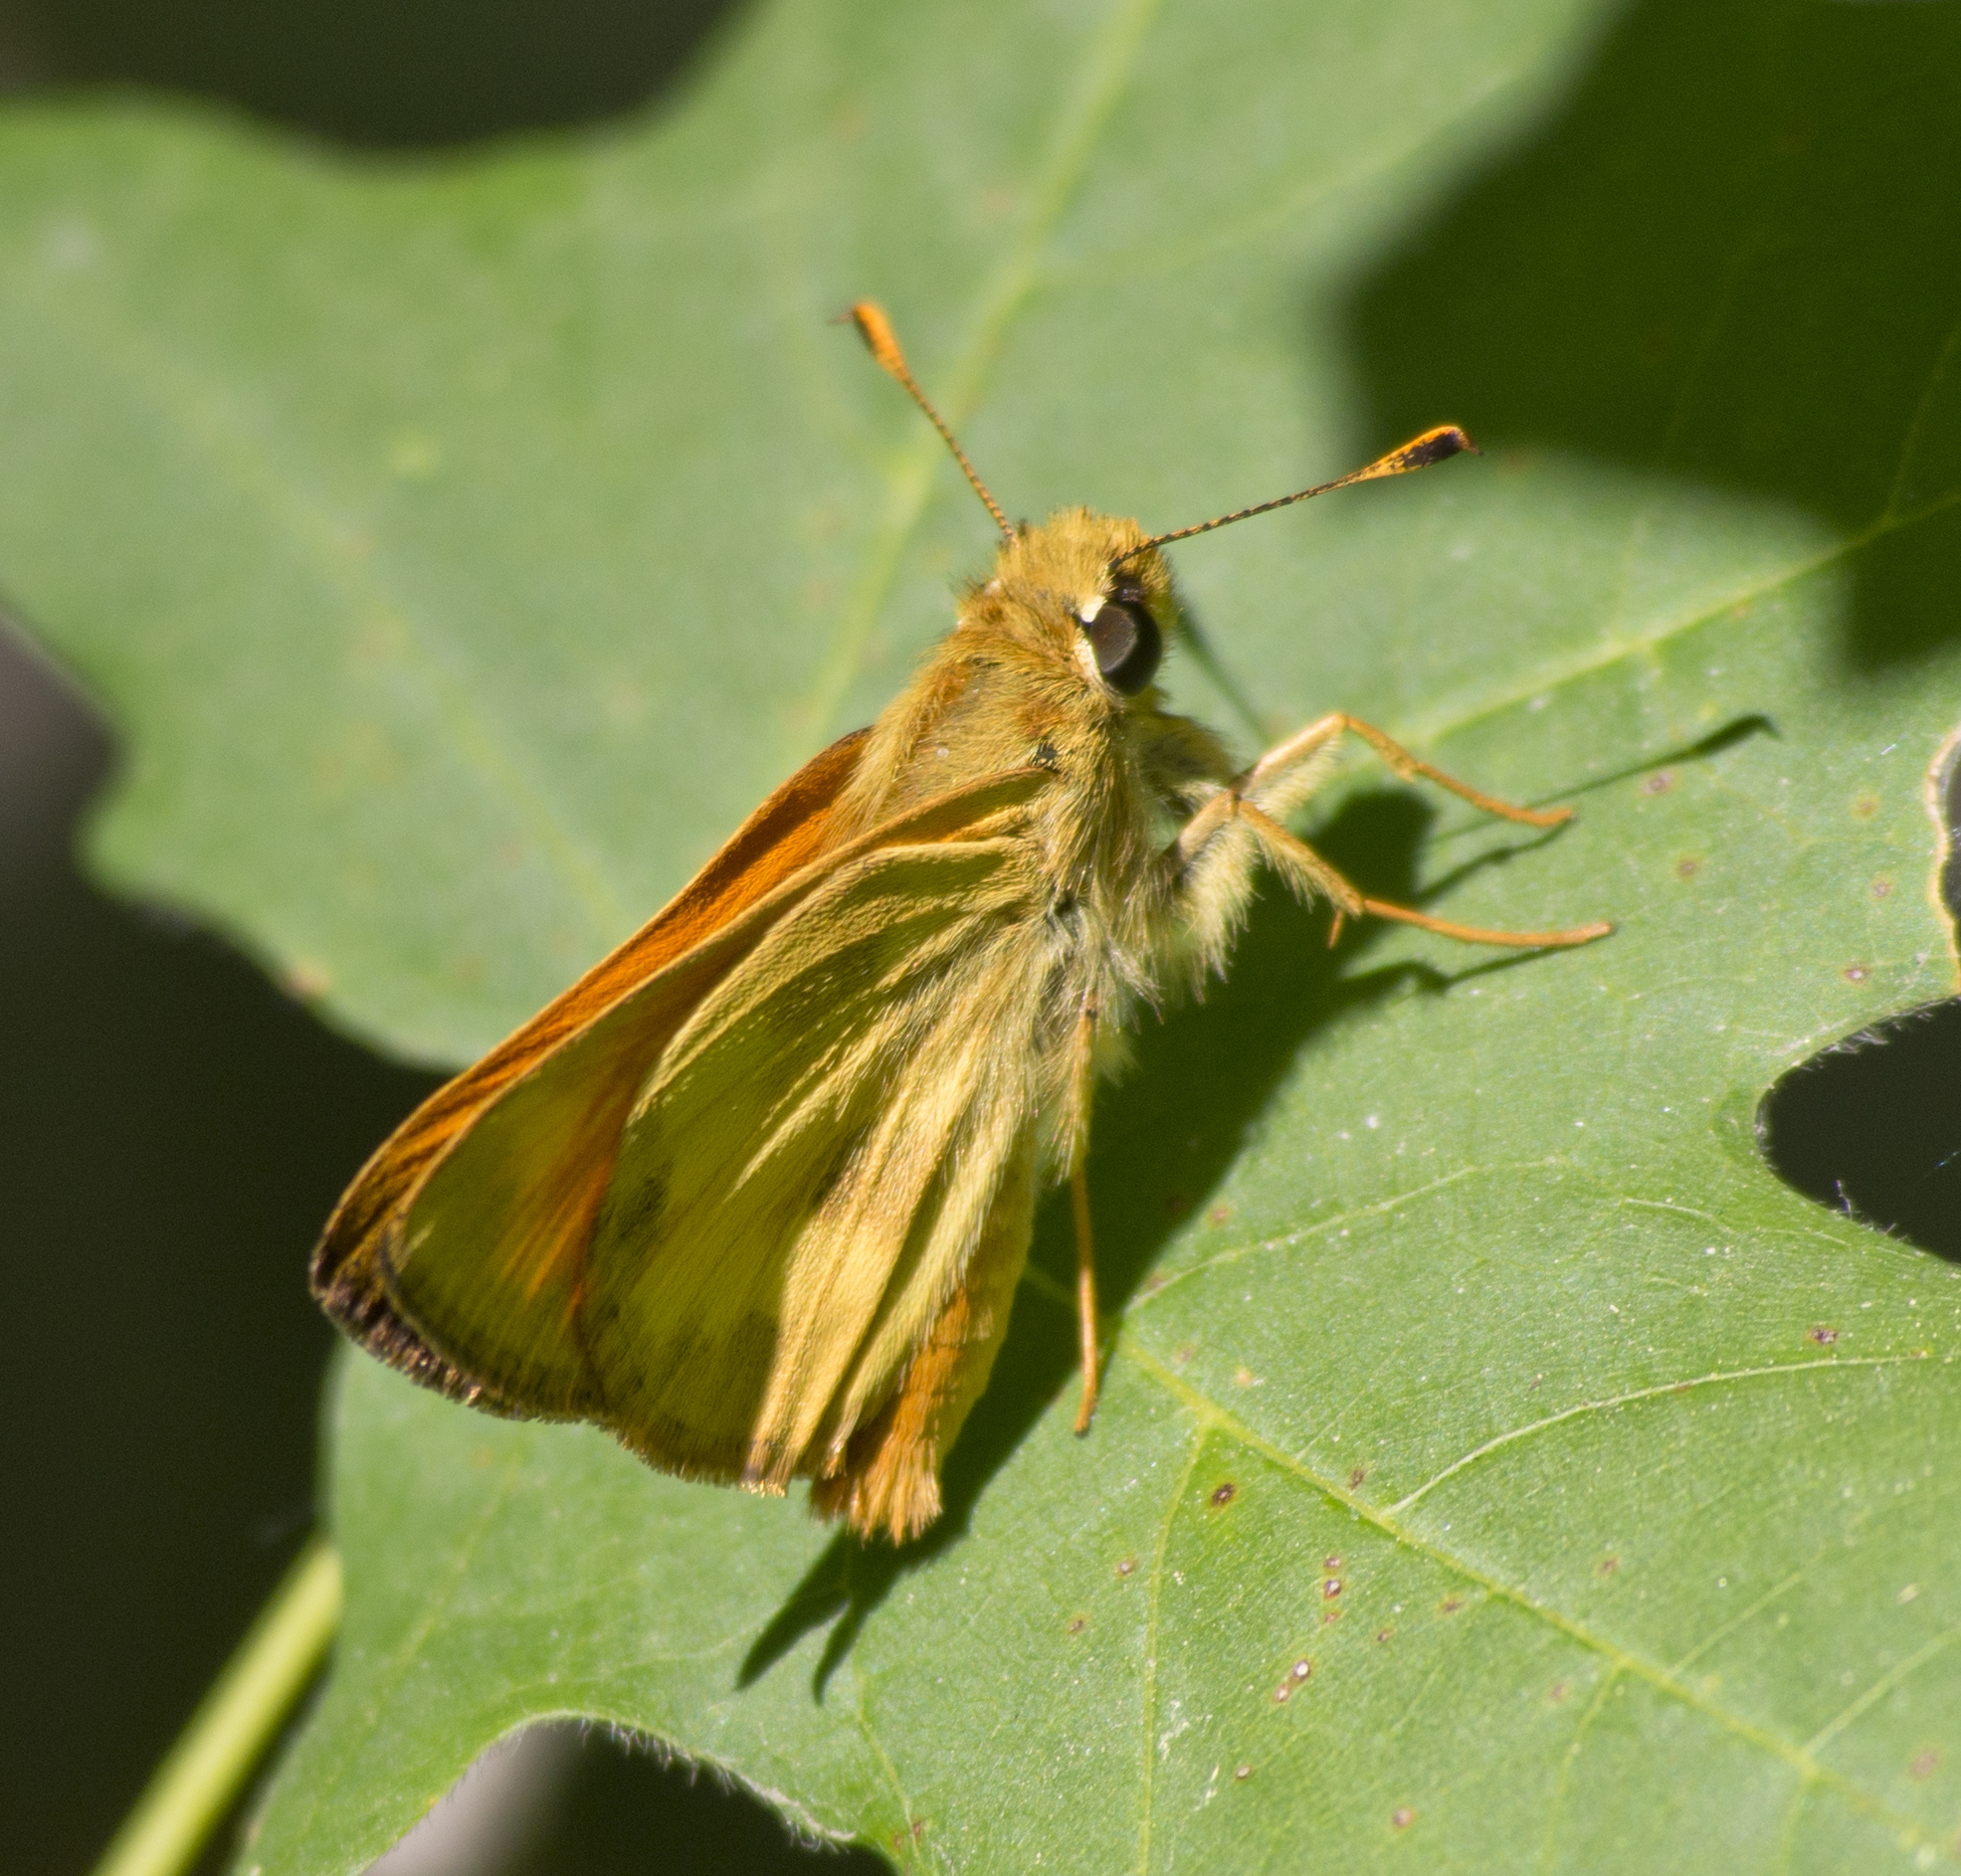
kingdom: Animalia
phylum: Arthropoda
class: Insecta
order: Lepidoptera
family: Hesperiidae
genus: Lon
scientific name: Lon taxiles
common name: Taxiles skipper
